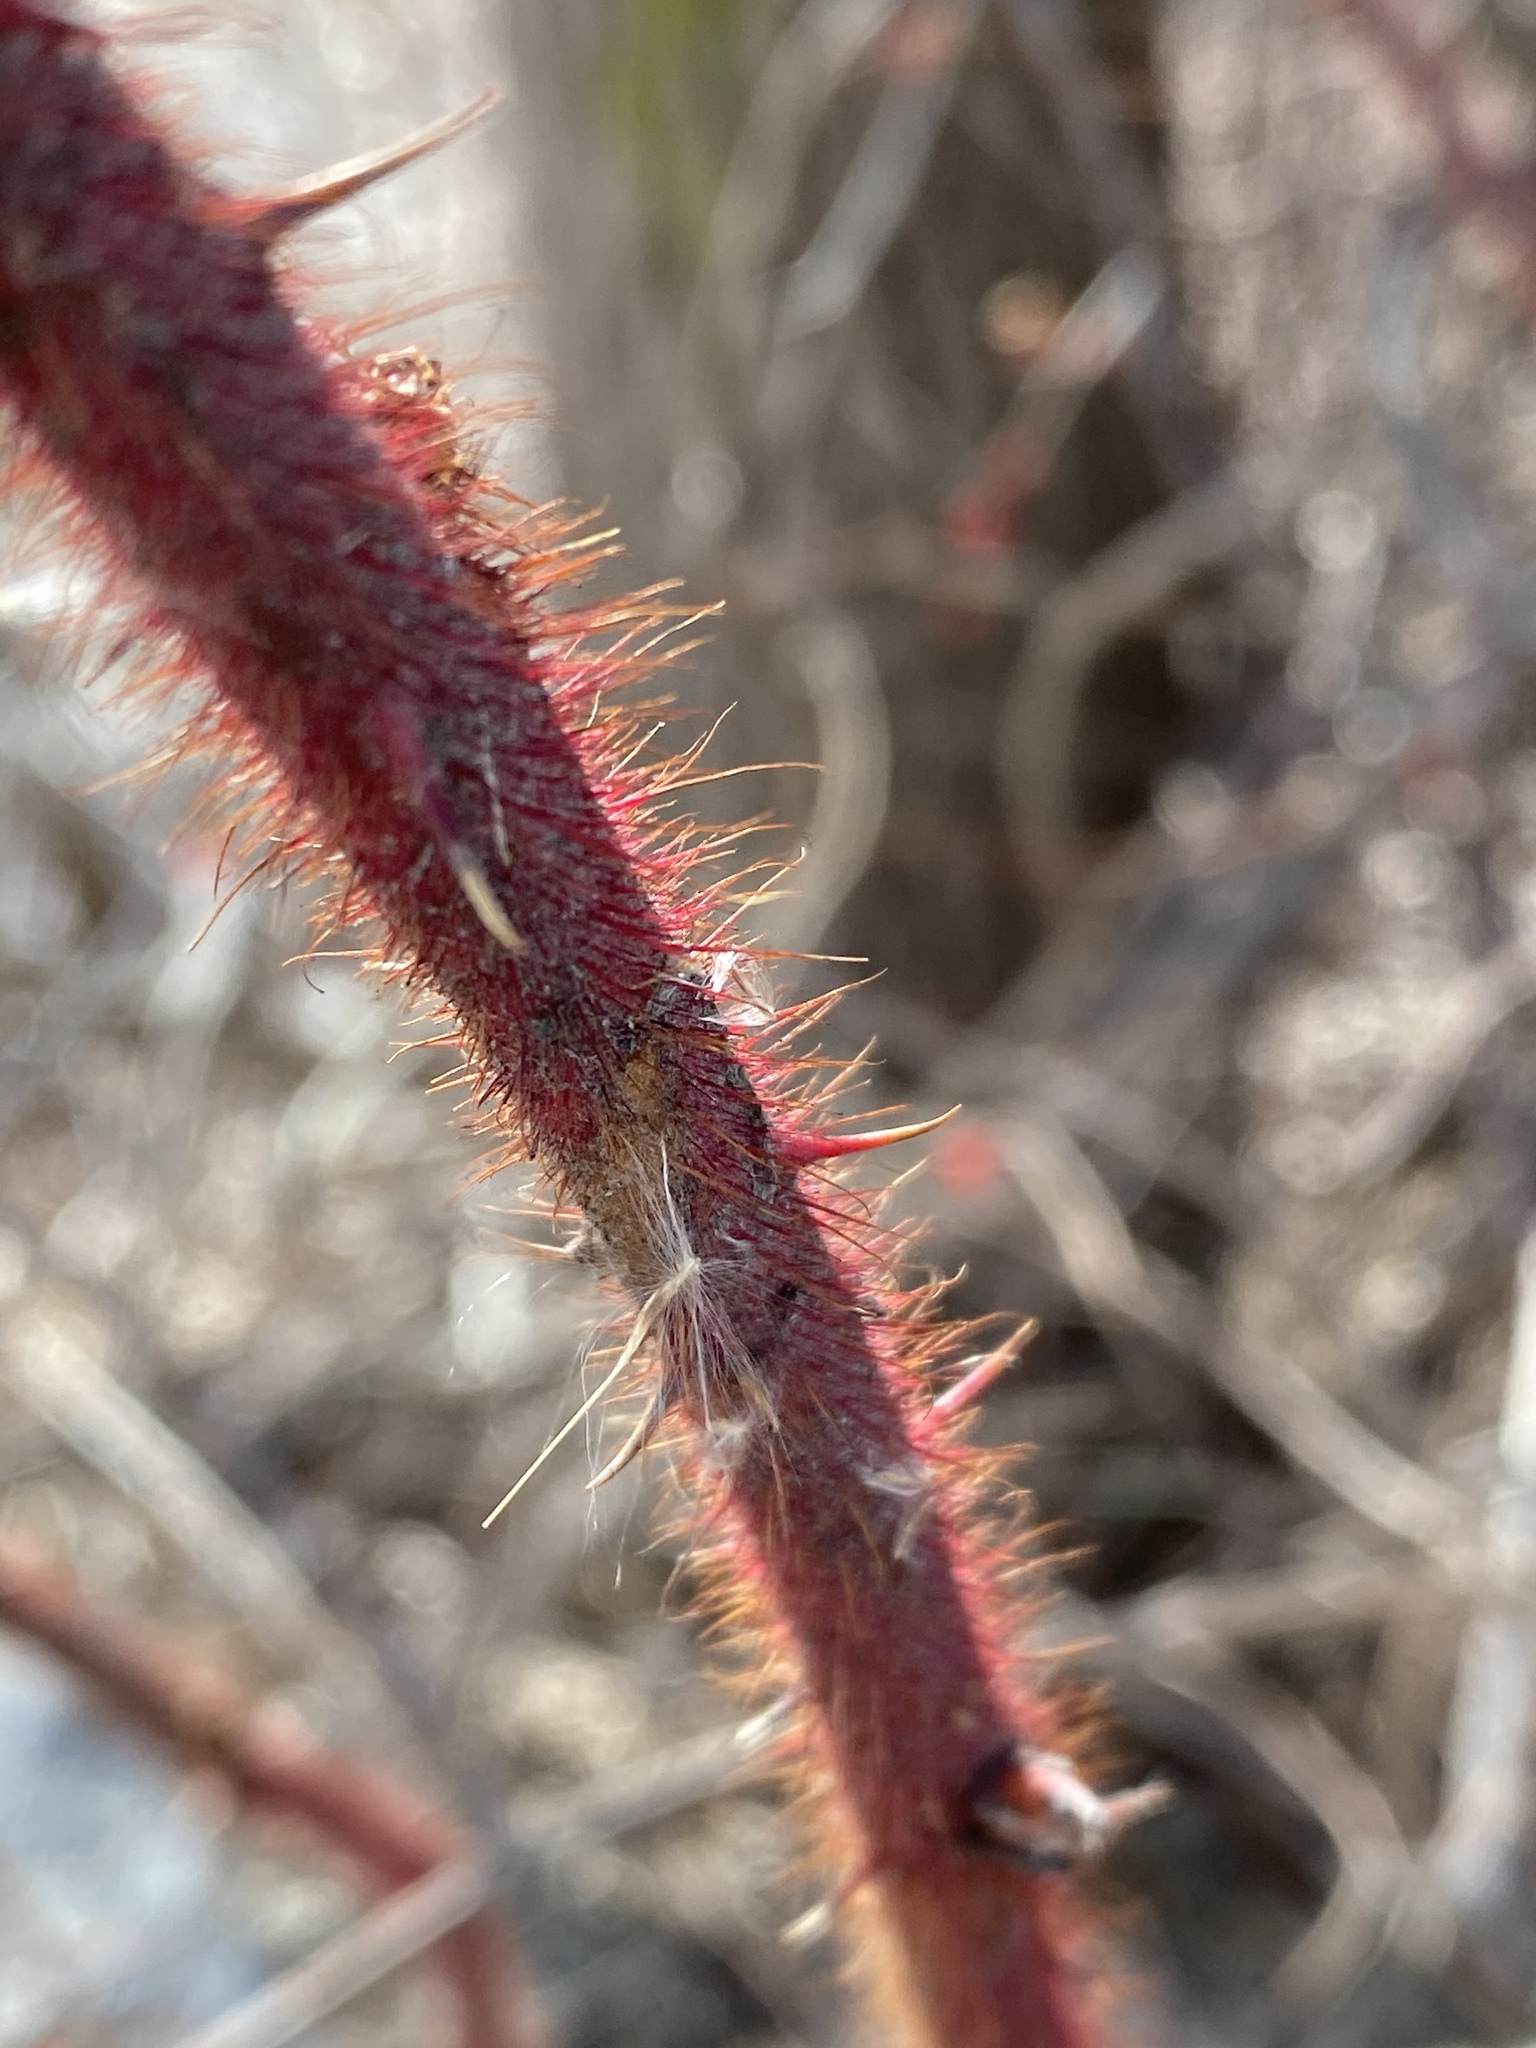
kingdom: Plantae
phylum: Tracheophyta
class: Magnoliopsida
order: Rosales
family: Rosaceae
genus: Rubus
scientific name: Rubus phoenicolasius
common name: Japanese wineberry
